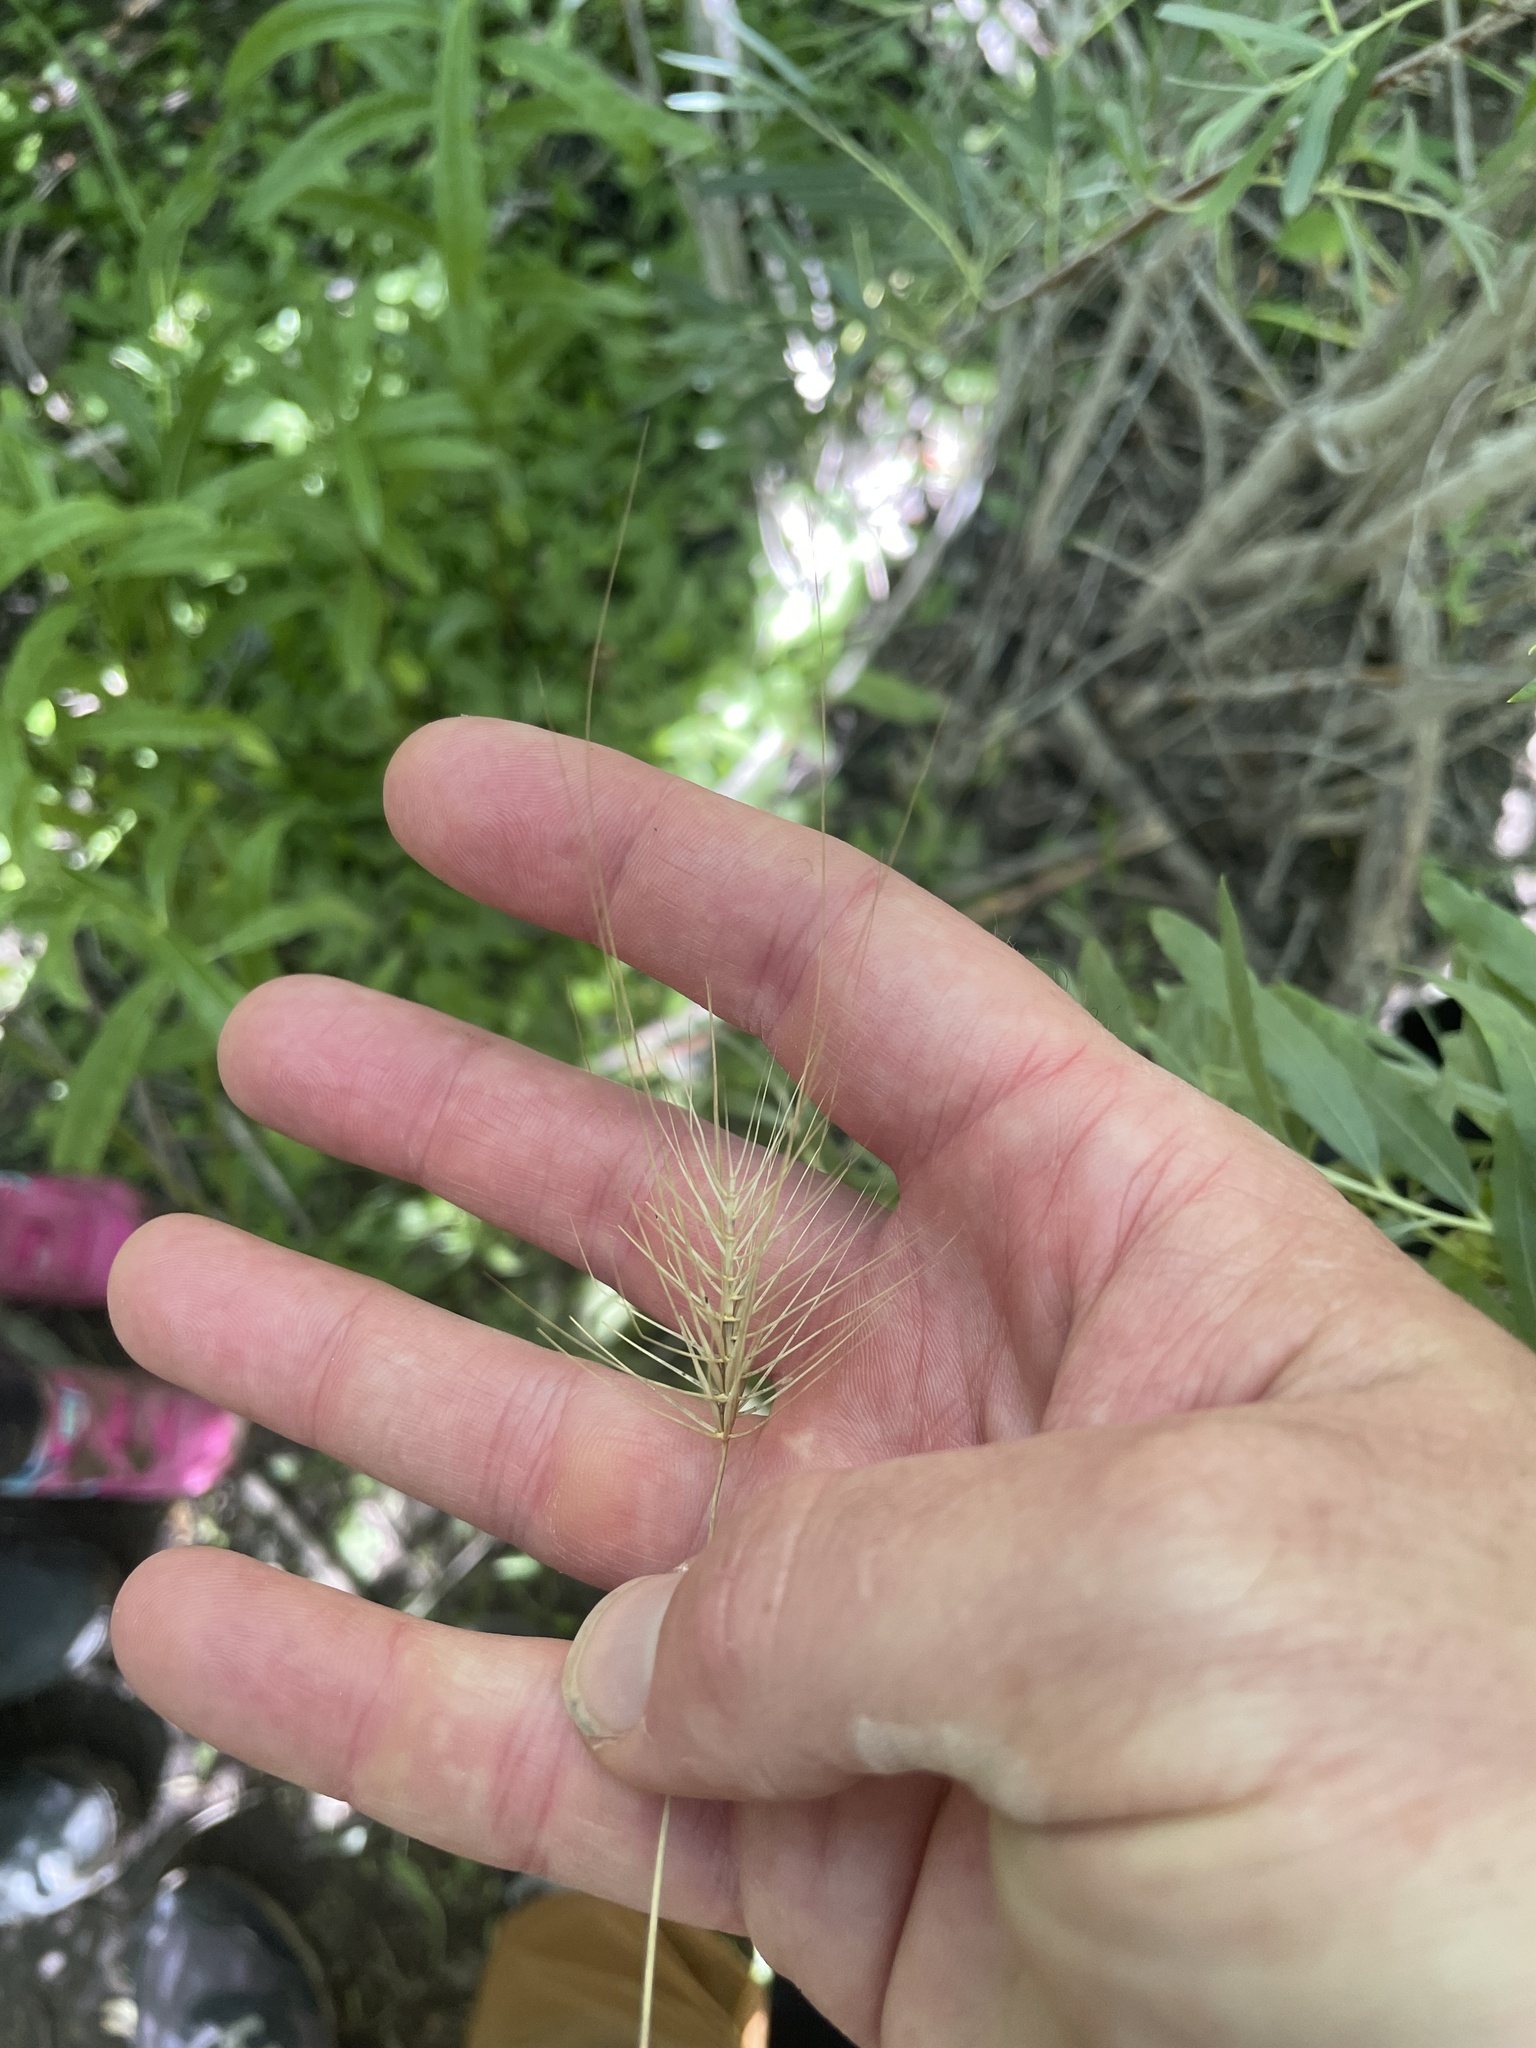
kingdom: Plantae
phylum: Tracheophyta
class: Liliopsida
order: Poales
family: Poaceae
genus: Taeniatherum
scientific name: Taeniatherum caput-medusae
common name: Medusahead
